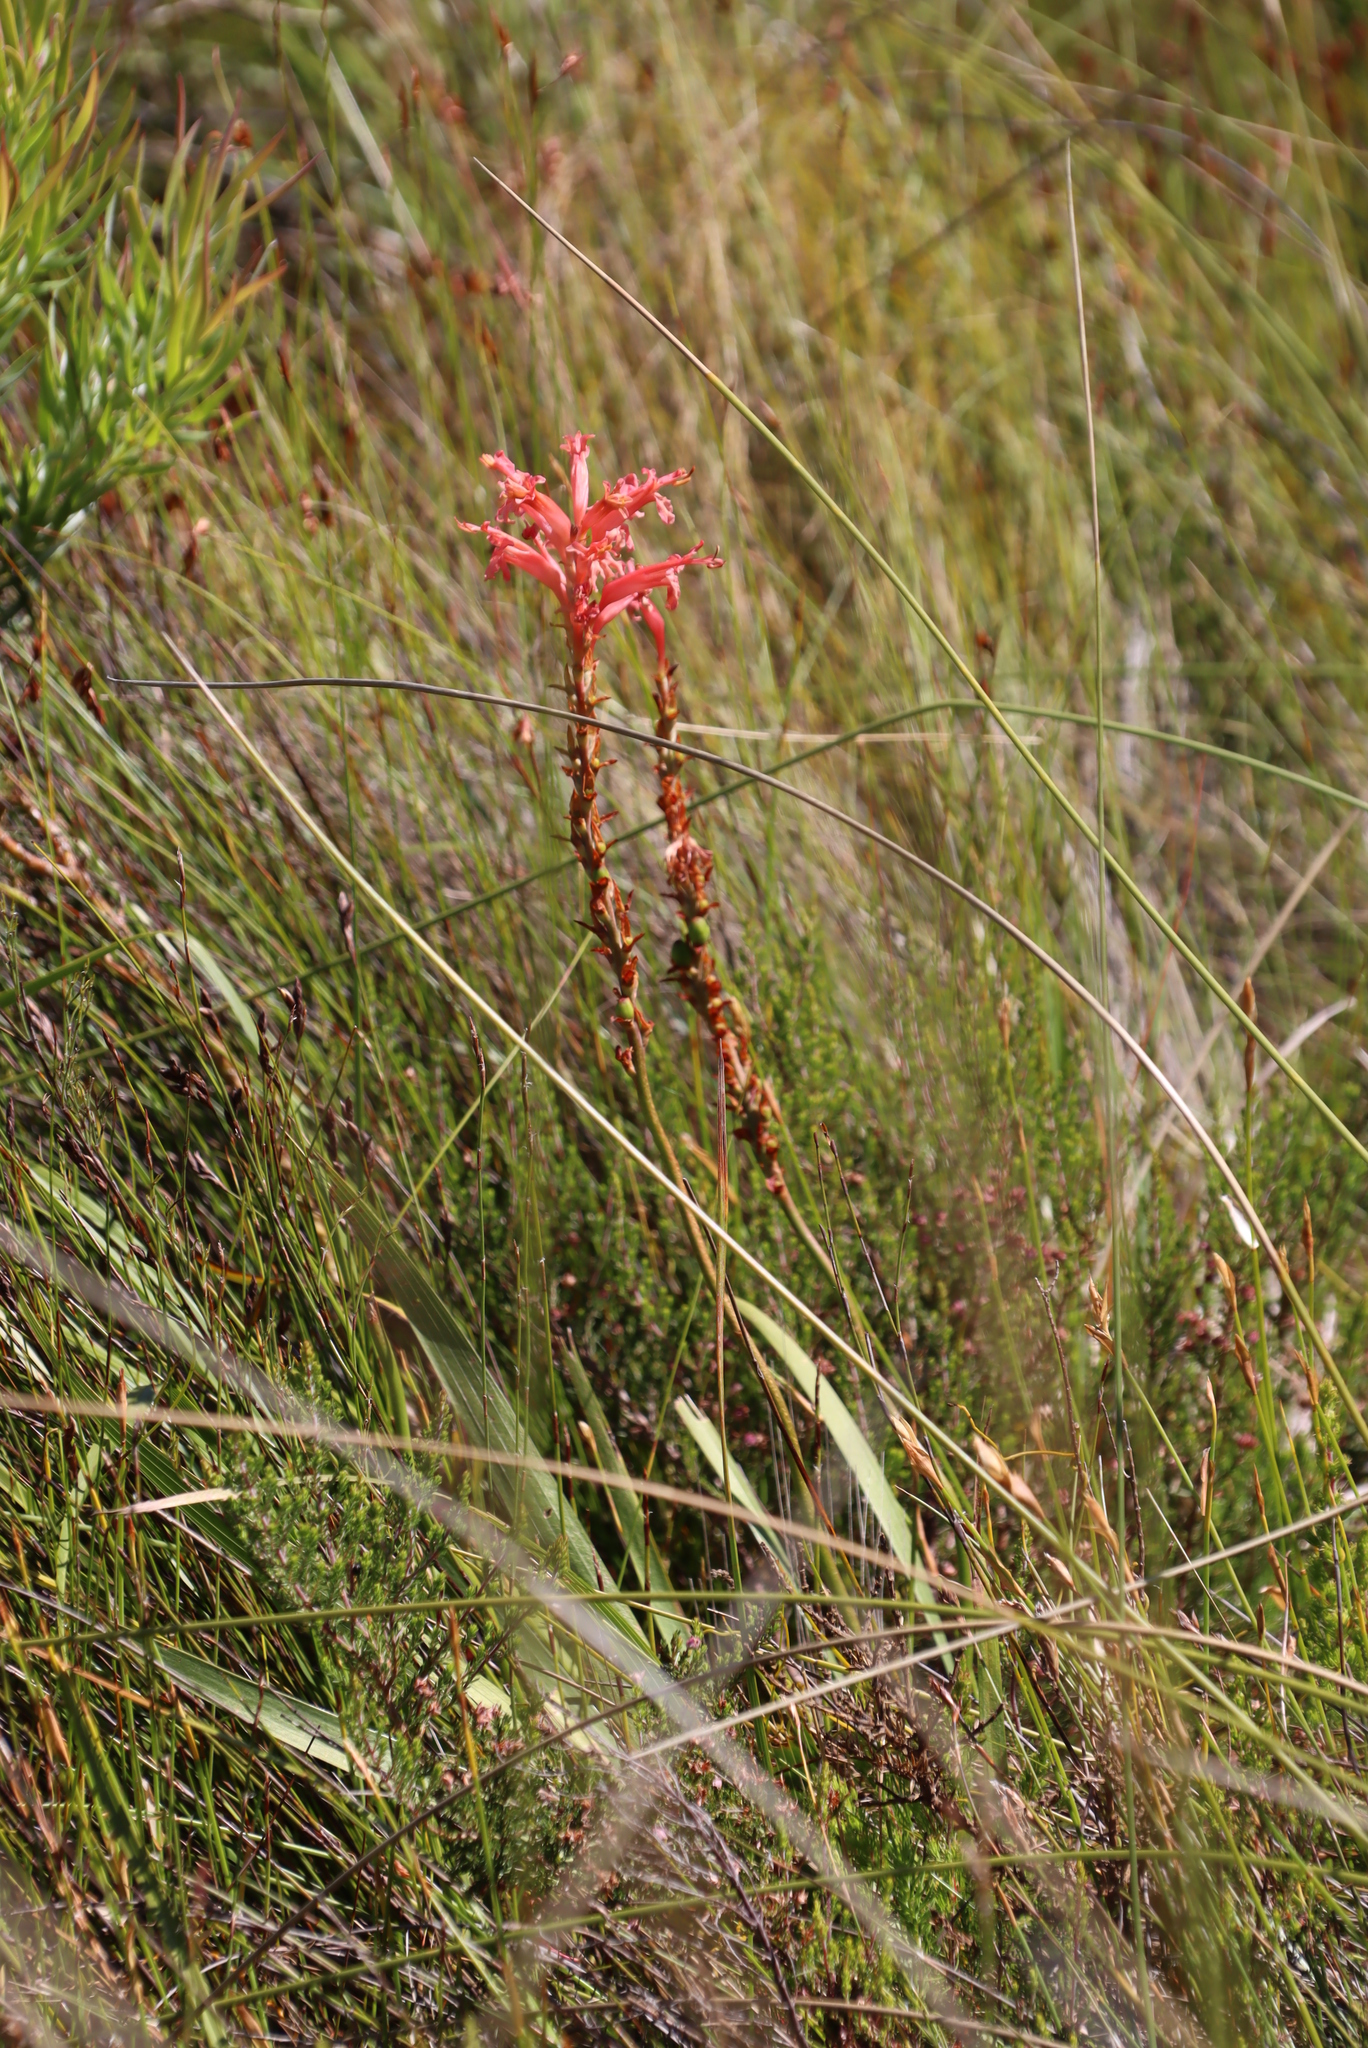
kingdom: Plantae
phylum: Tracheophyta
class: Liliopsida
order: Asparagales
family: Iridaceae
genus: Tritoniopsis
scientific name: Tritoniopsis antholyza
